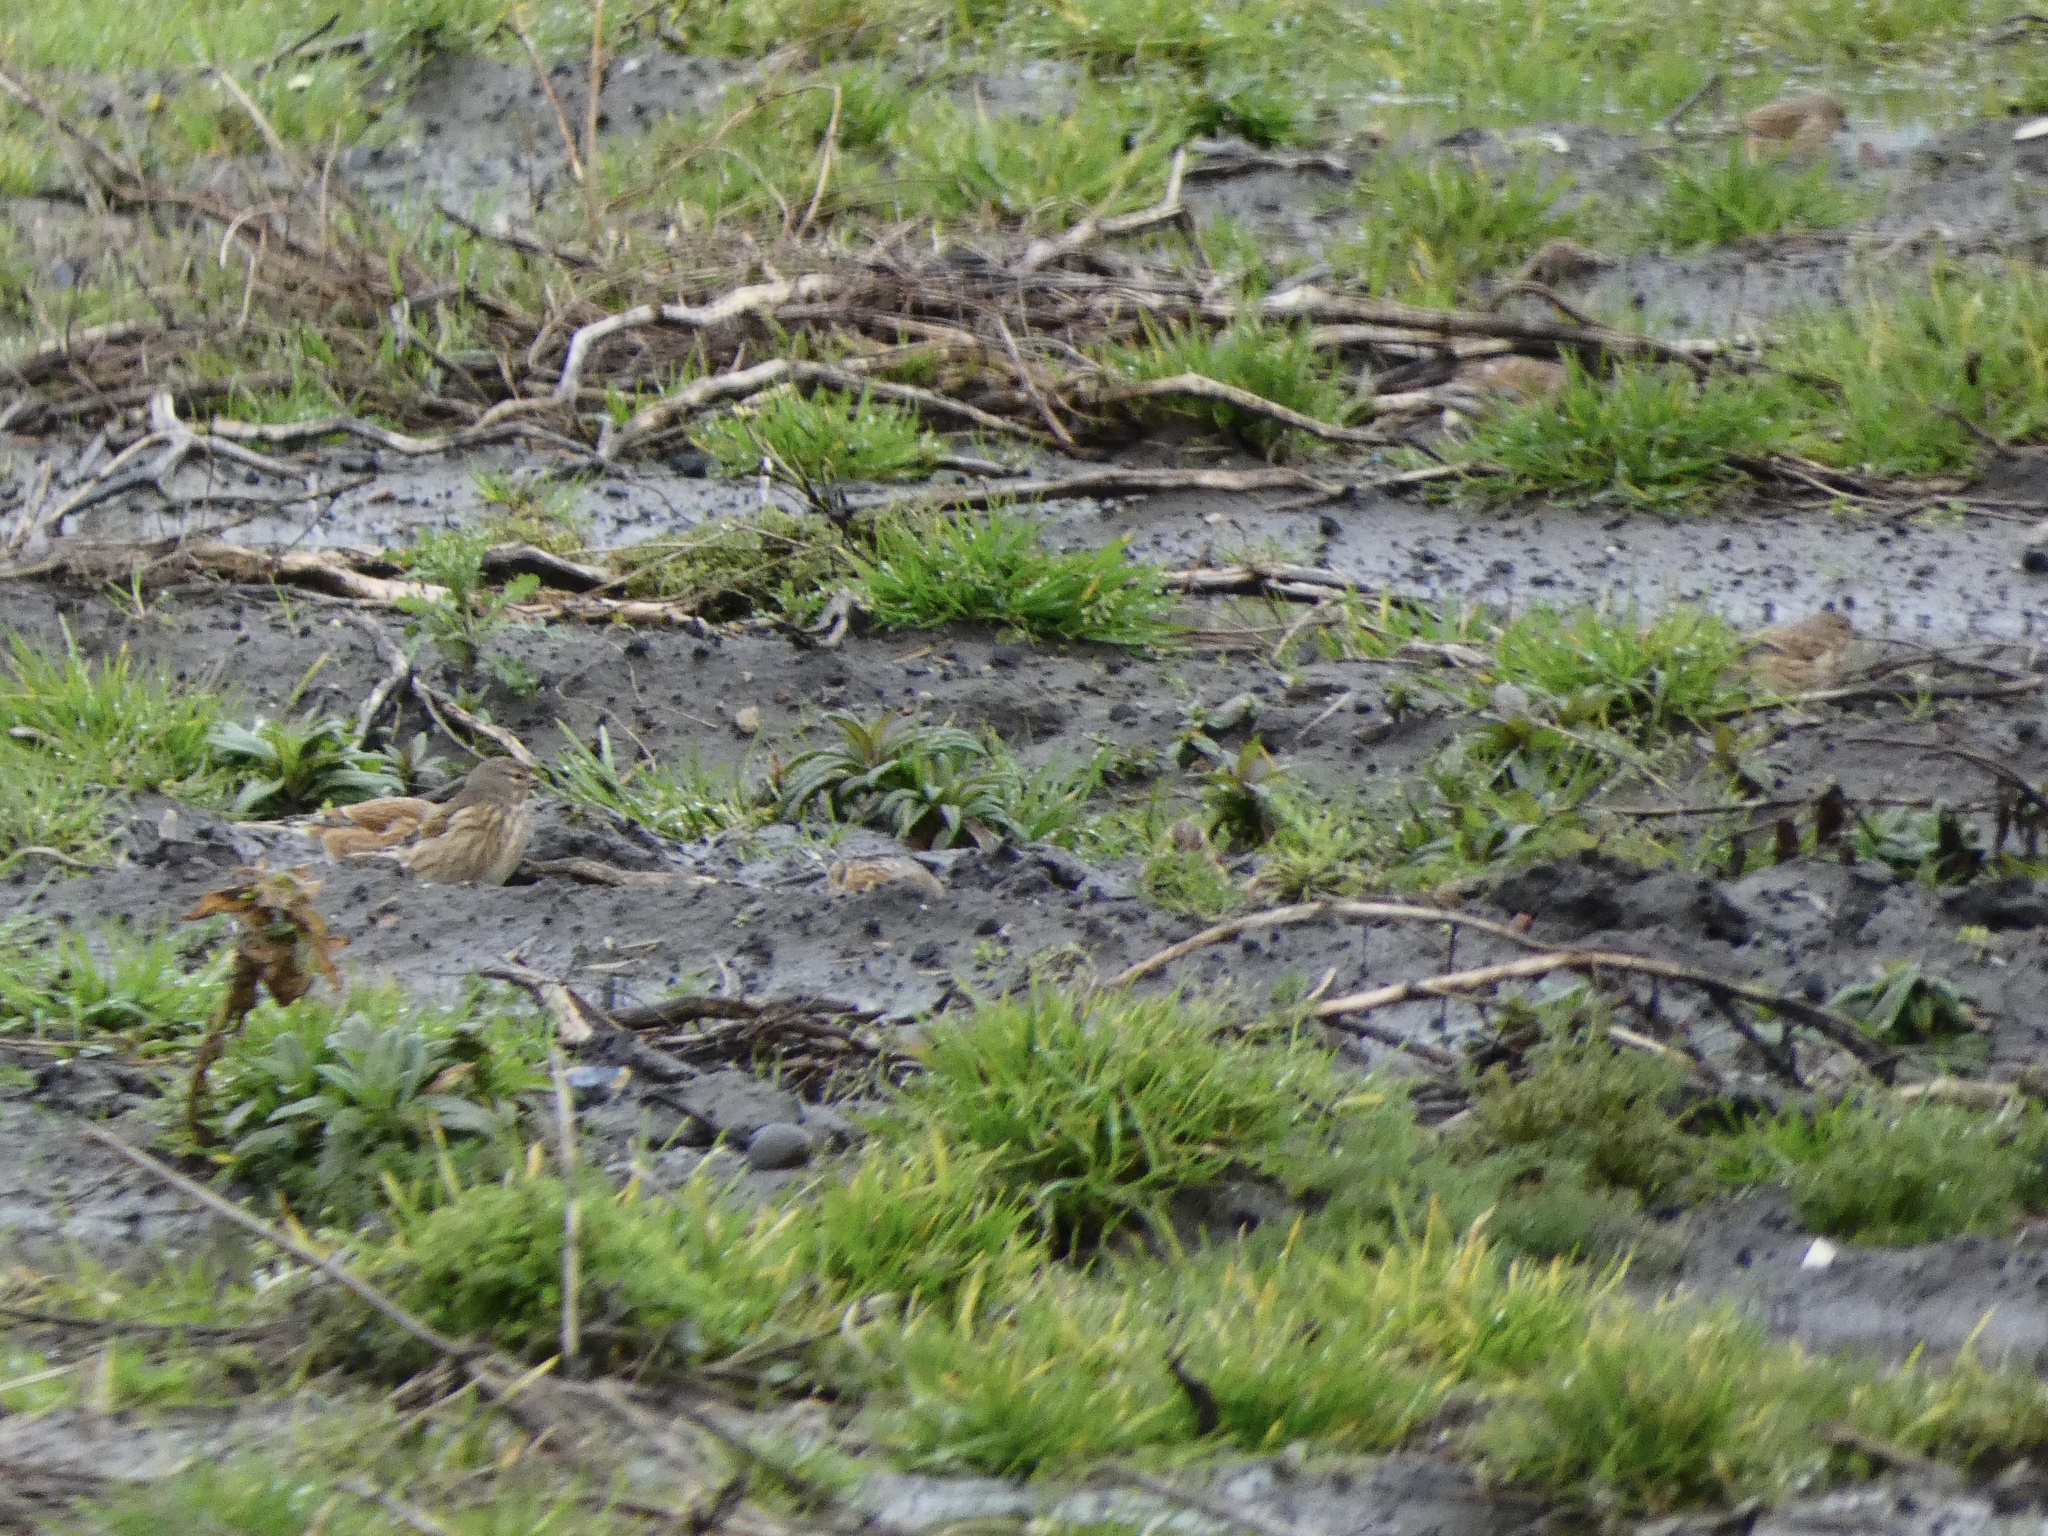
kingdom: Animalia
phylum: Chordata
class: Aves
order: Passeriformes
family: Fringillidae
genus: Linaria
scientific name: Linaria cannabina
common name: Common linnet
